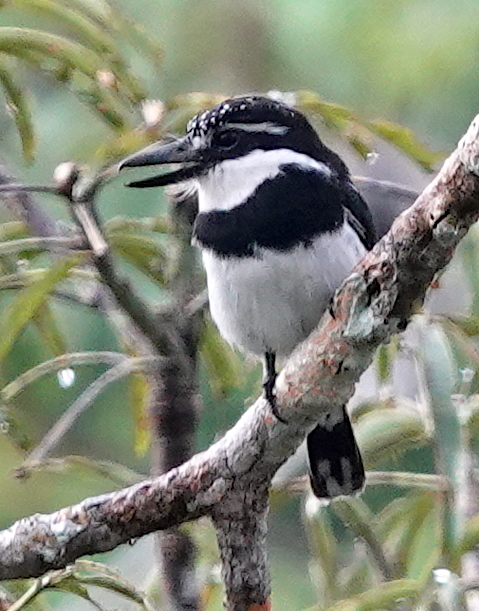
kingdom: Animalia
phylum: Chordata
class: Aves
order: Piciformes
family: Bucconidae
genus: Notharchus
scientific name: Notharchus tectus
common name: Pied puffbird
